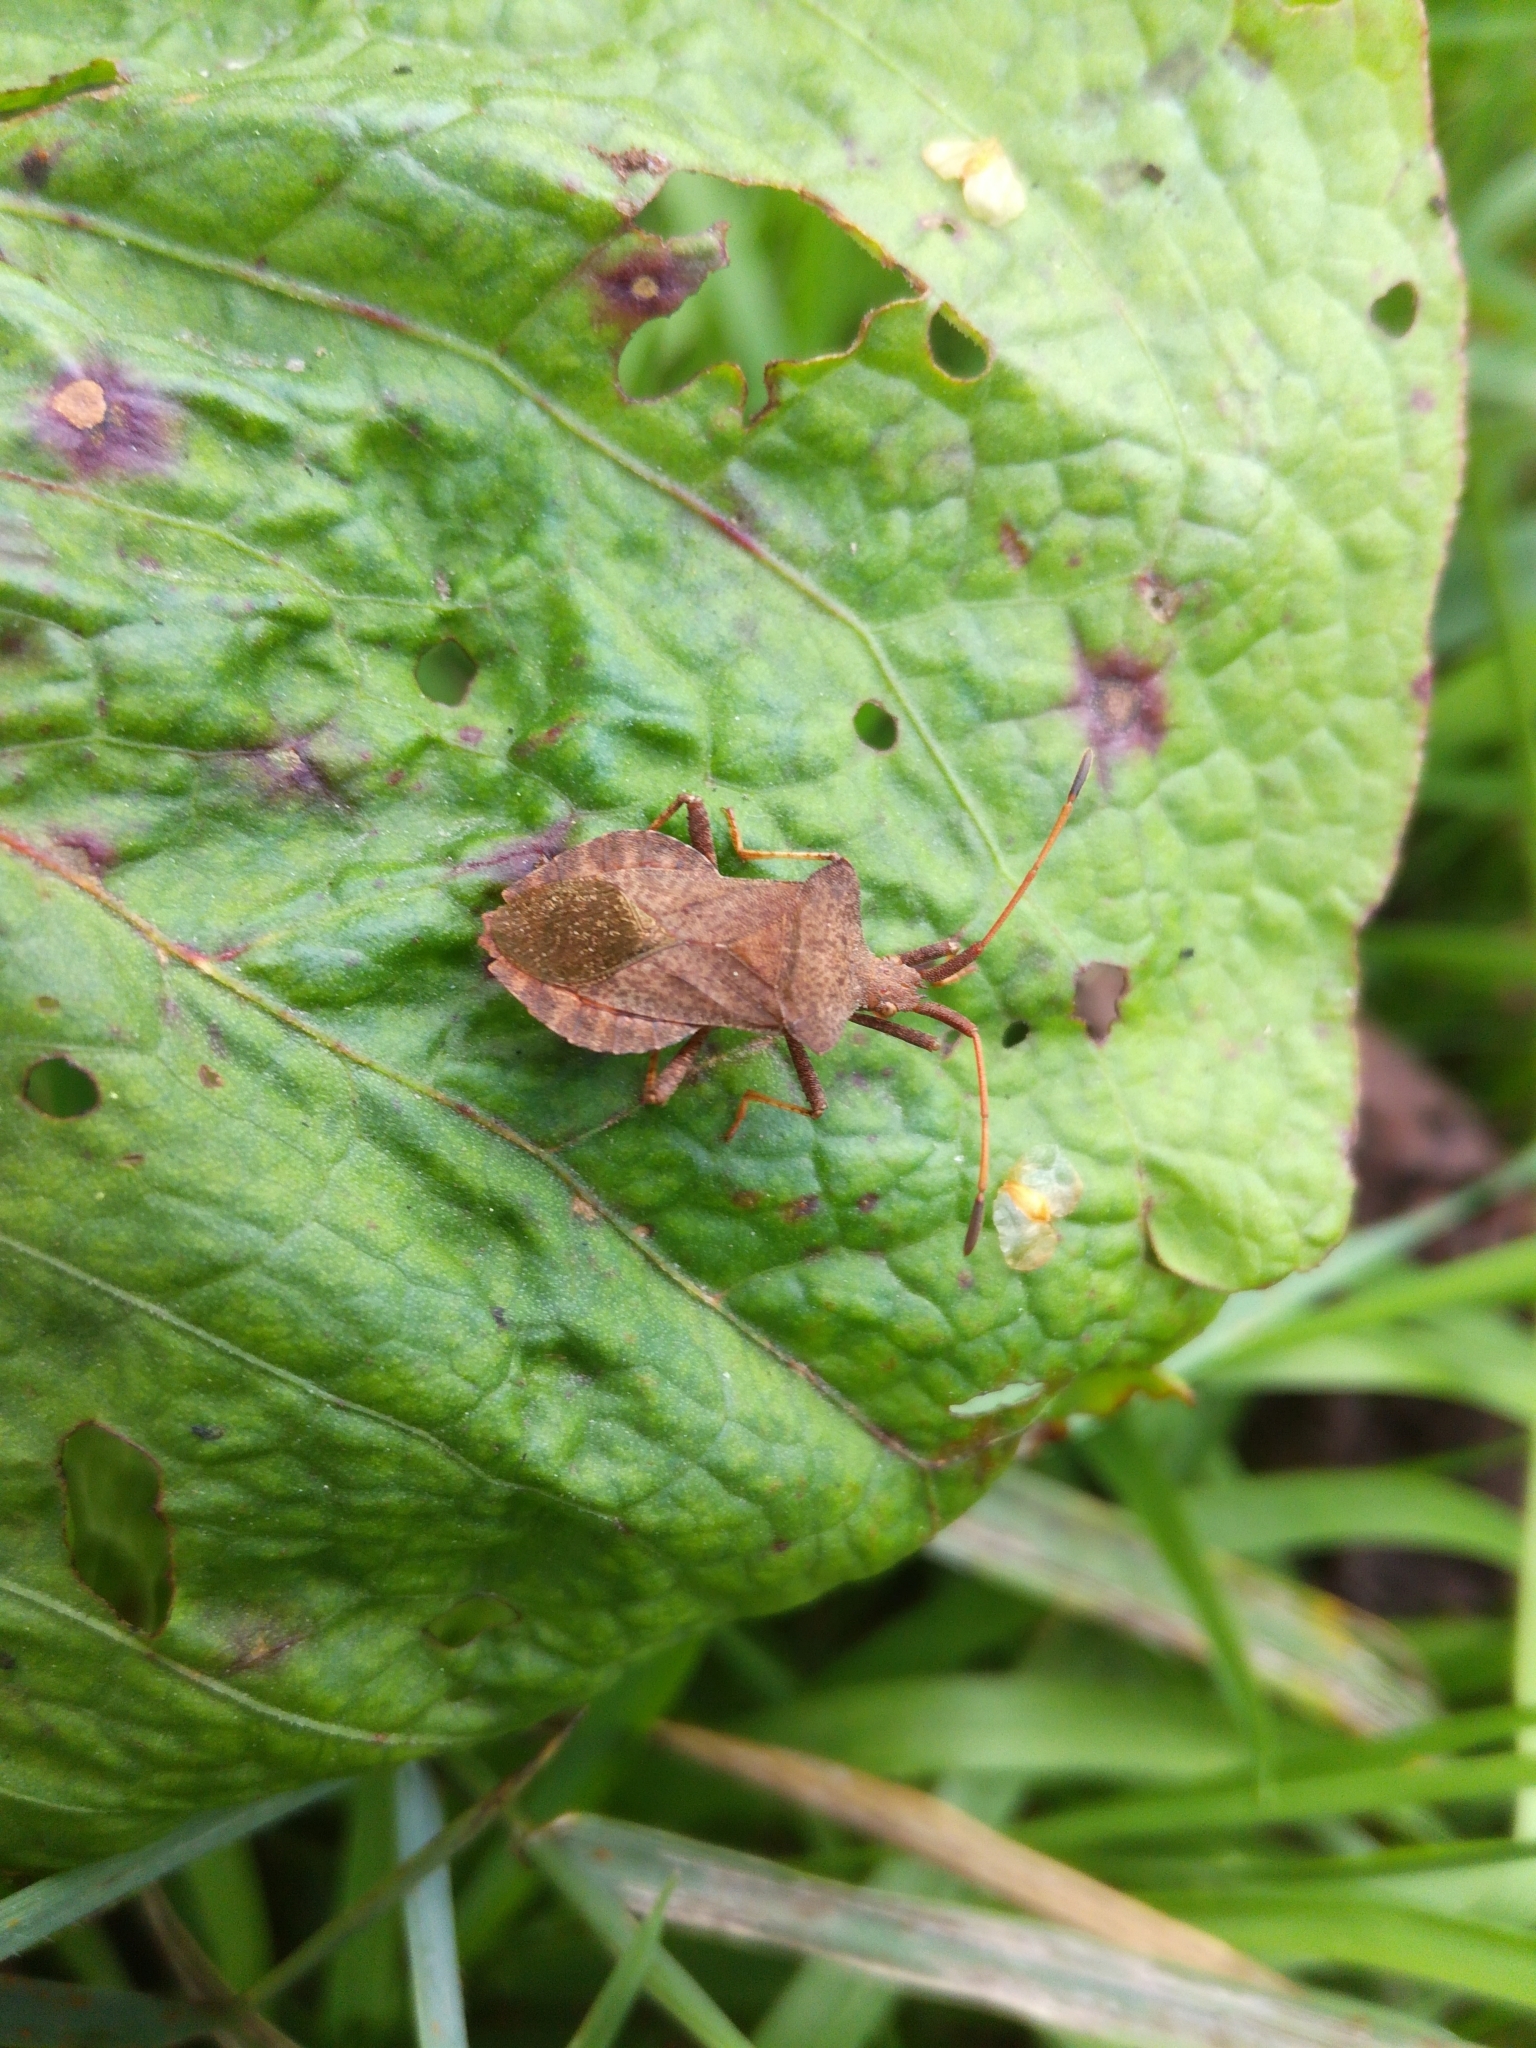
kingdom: Animalia
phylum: Arthropoda
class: Insecta
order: Hemiptera
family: Coreidae
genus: Coreus
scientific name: Coreus marginatus
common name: Dock bug
